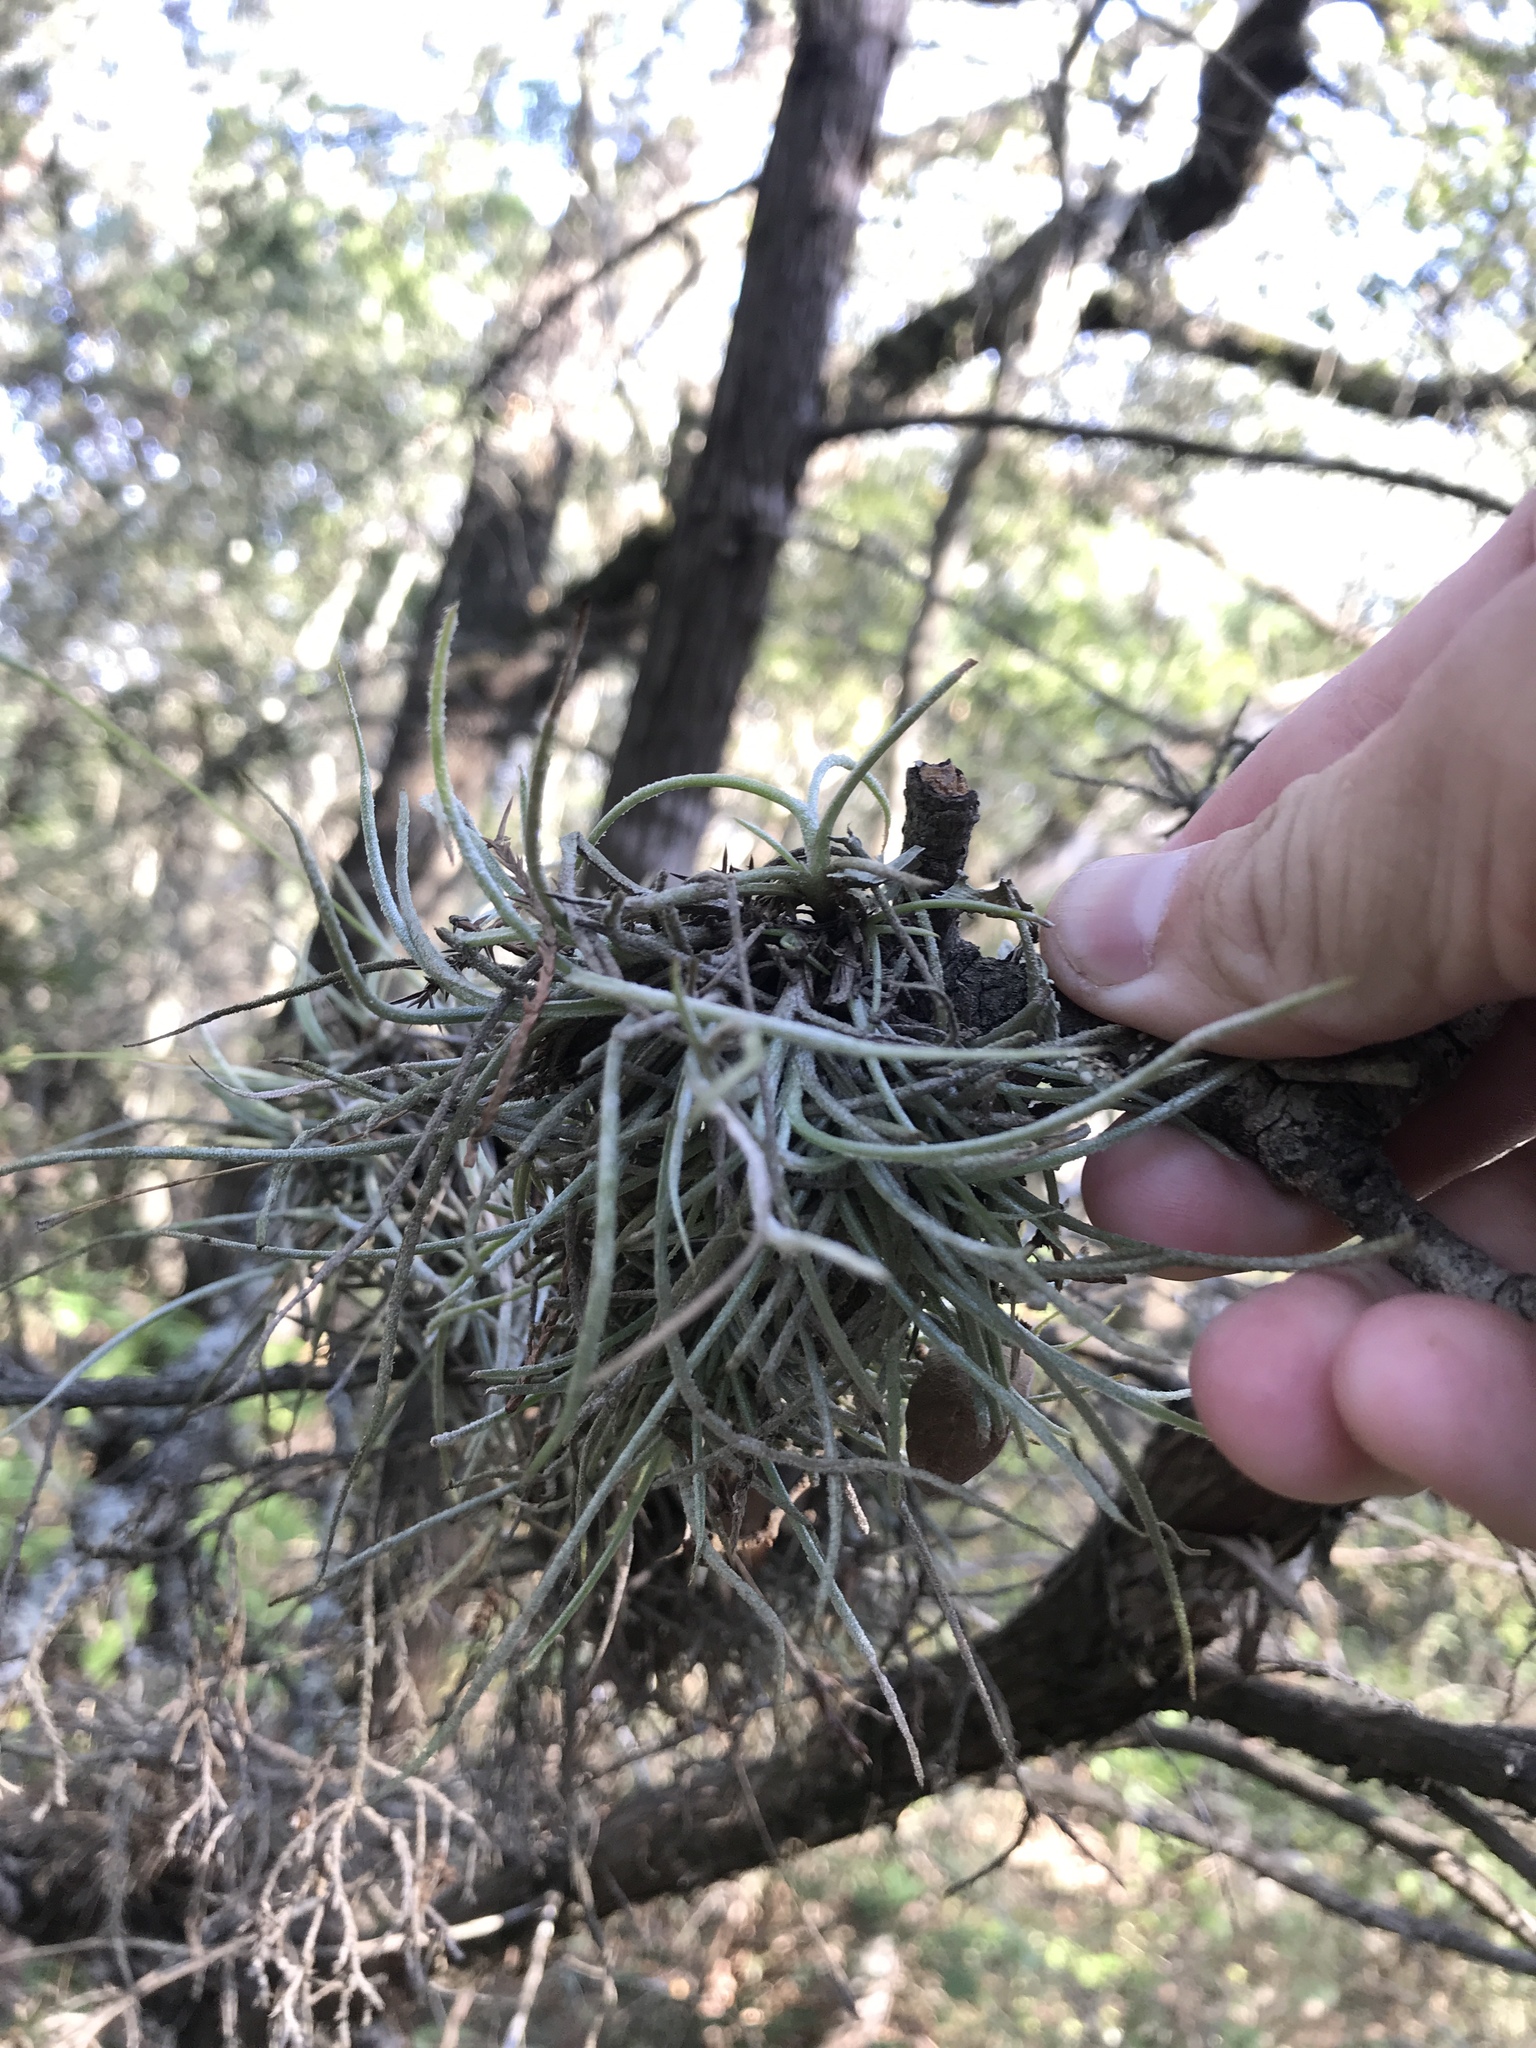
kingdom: Plantae
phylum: Tracheophyta
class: Liliopsida
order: Poales
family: Bromeliaceae
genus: Tillandsia
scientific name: Tillandsia recurvata
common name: Small ballmoss
